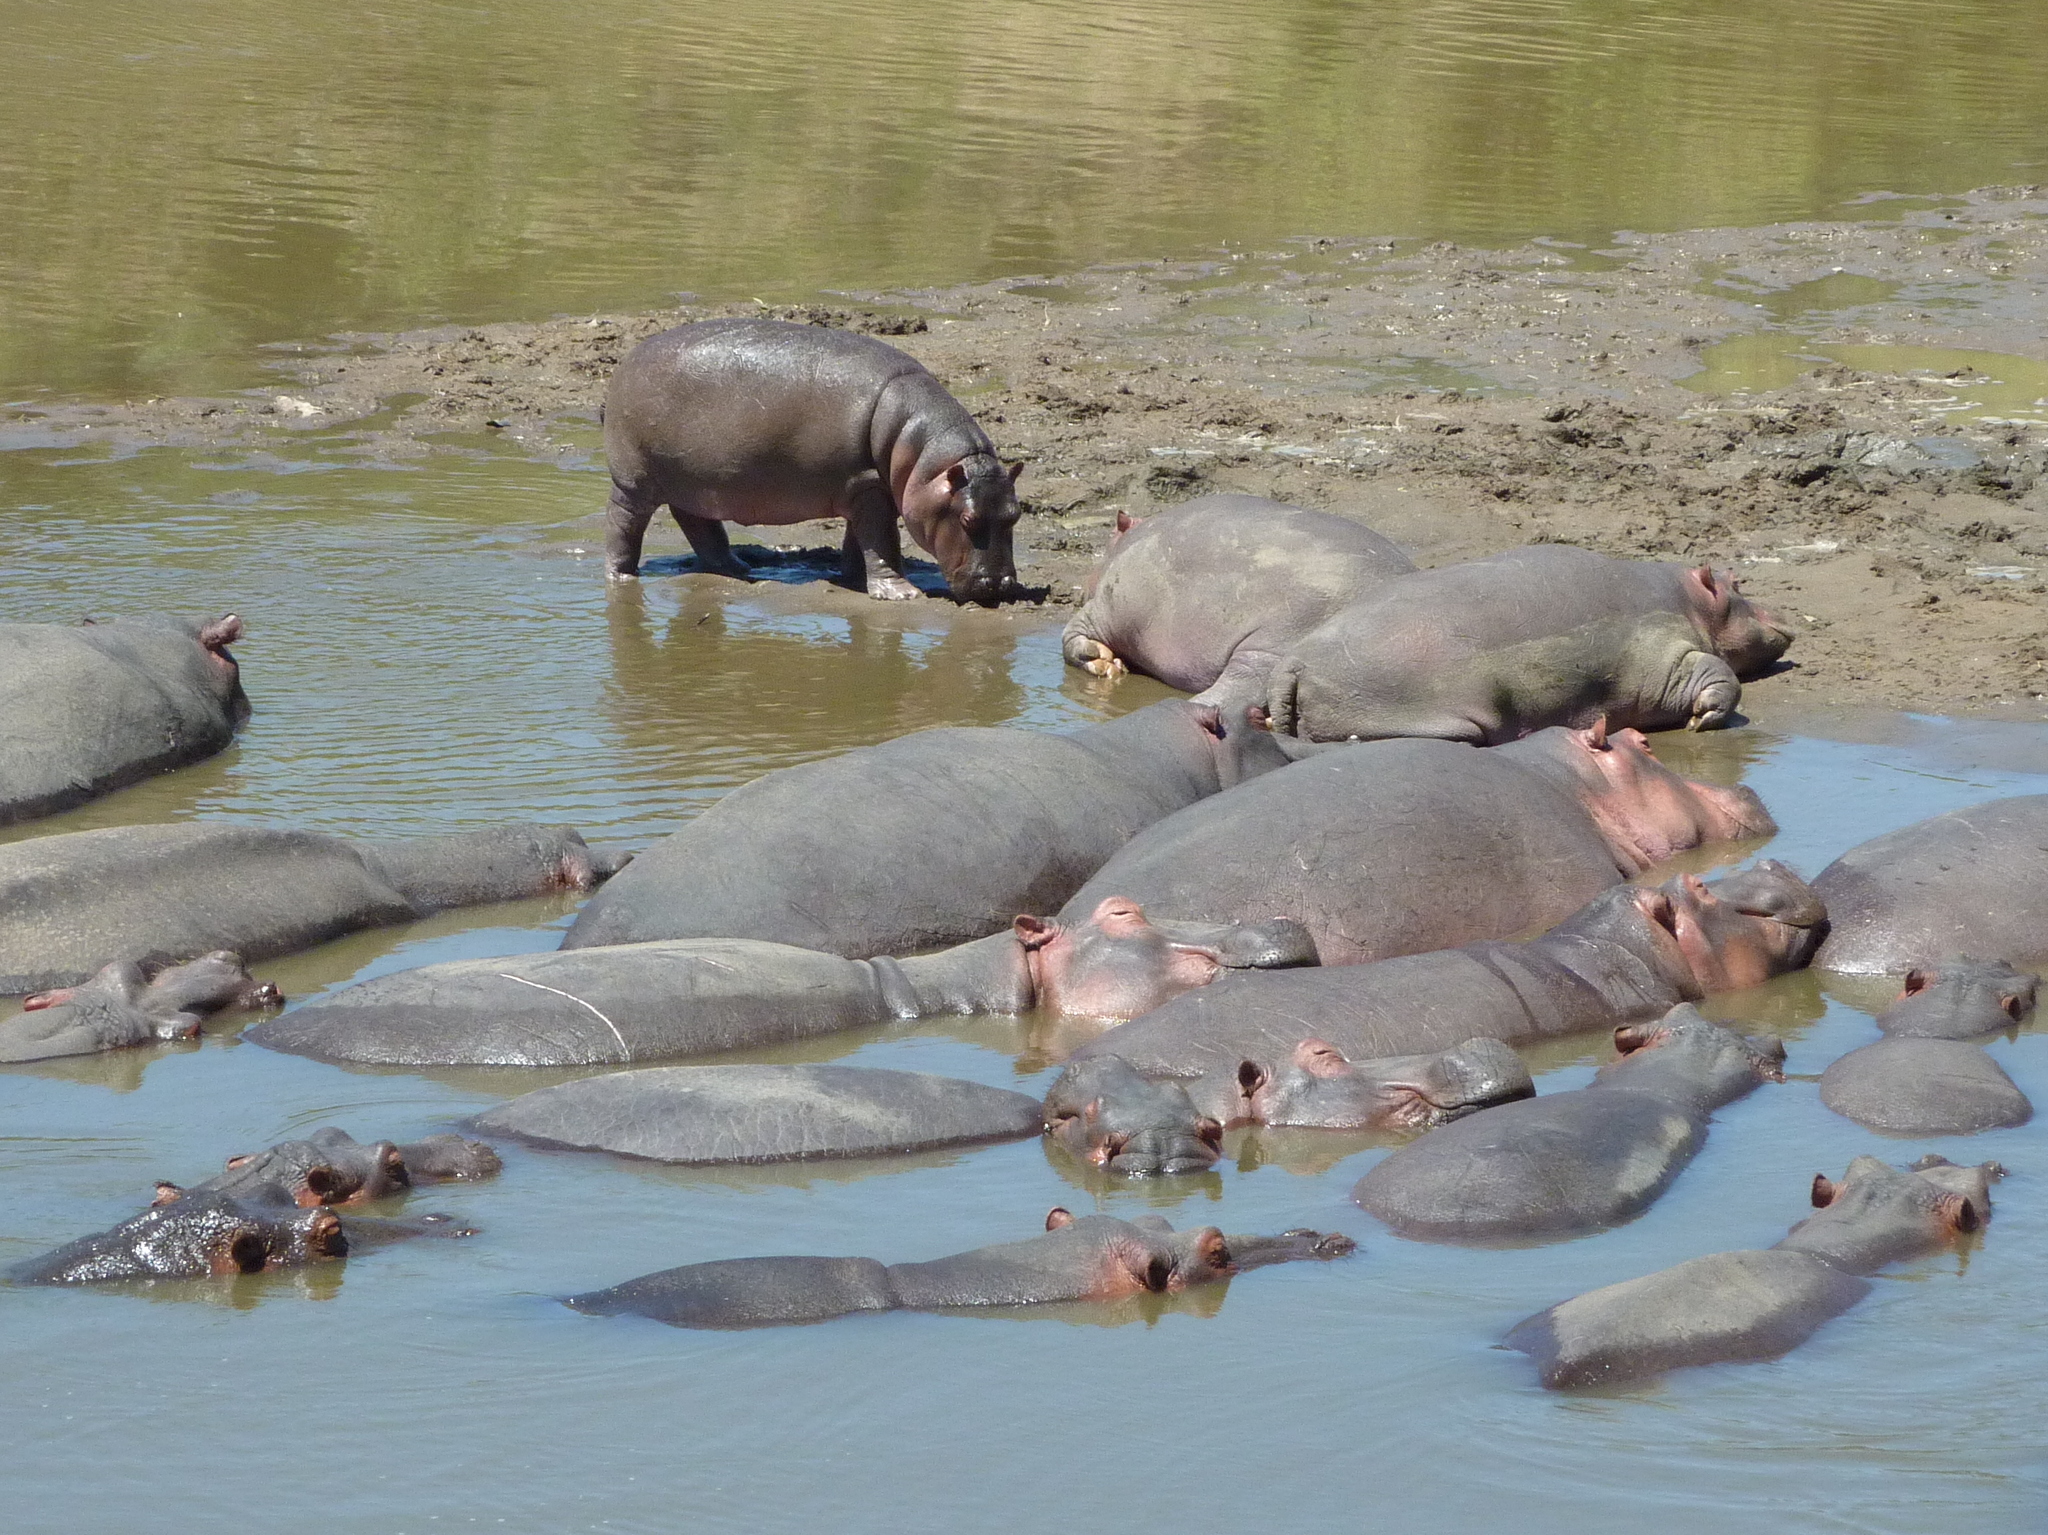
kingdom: Animalia
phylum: Chordata
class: Mammalia
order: Artiodactyla
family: Hippopotamidae
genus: Hippopotamus
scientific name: Hippopotamus amphibius
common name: Common hippopotamus
